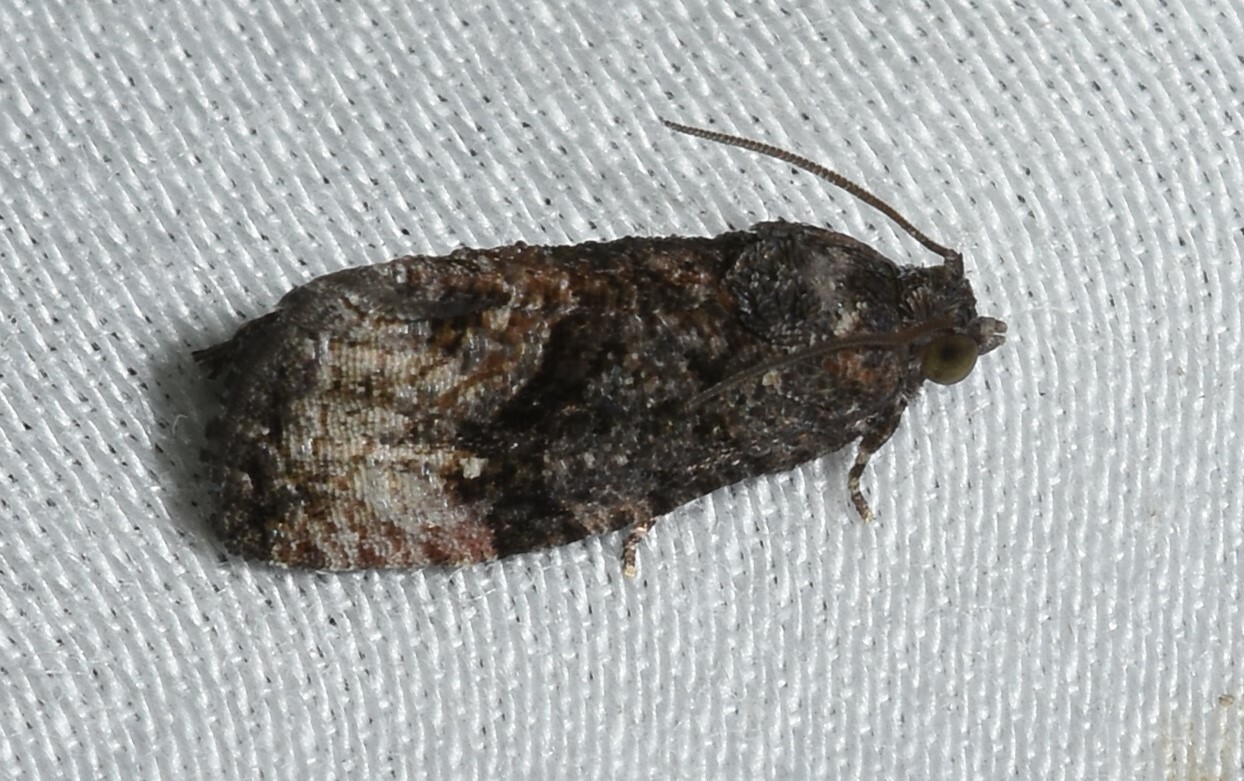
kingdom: Animalia
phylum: Arthropoda
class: Insecta
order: Lepidoptera
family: Tortricidae
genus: Gymnandrosoma
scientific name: Gymnandrosoma punctidiscanum
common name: Dotted ecdytolopha moth
